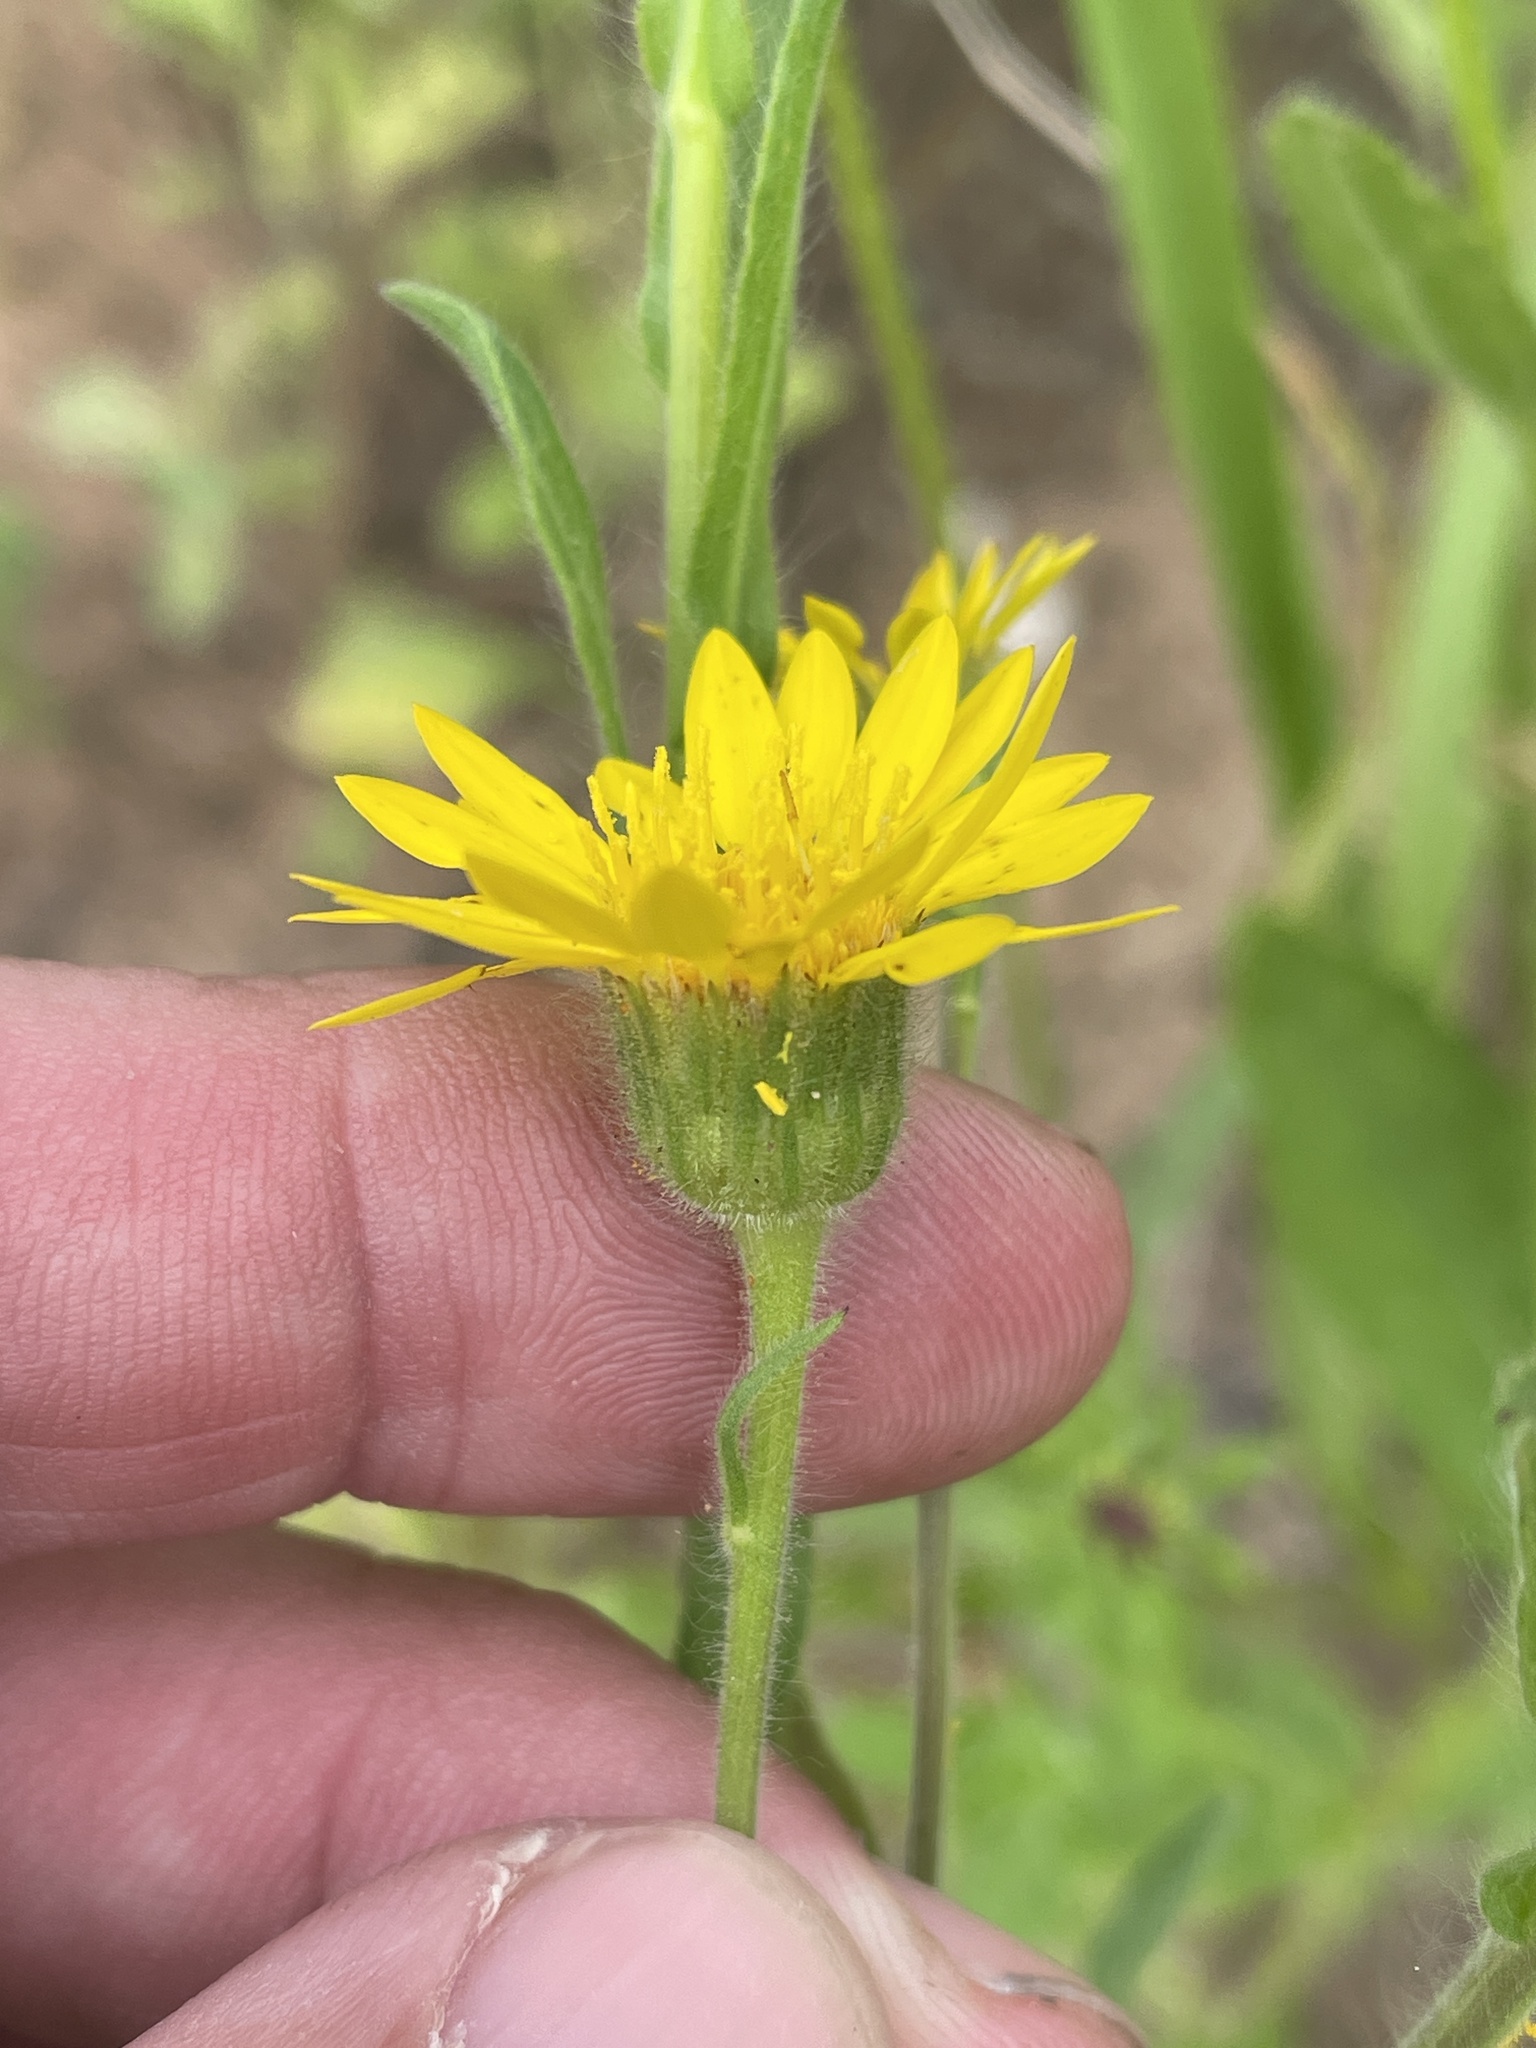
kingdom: Plantae
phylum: Tracheophyta
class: Magnoliopsida
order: Asterales
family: Asteraceae
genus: Bradburia
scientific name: Bradburia pilosa
